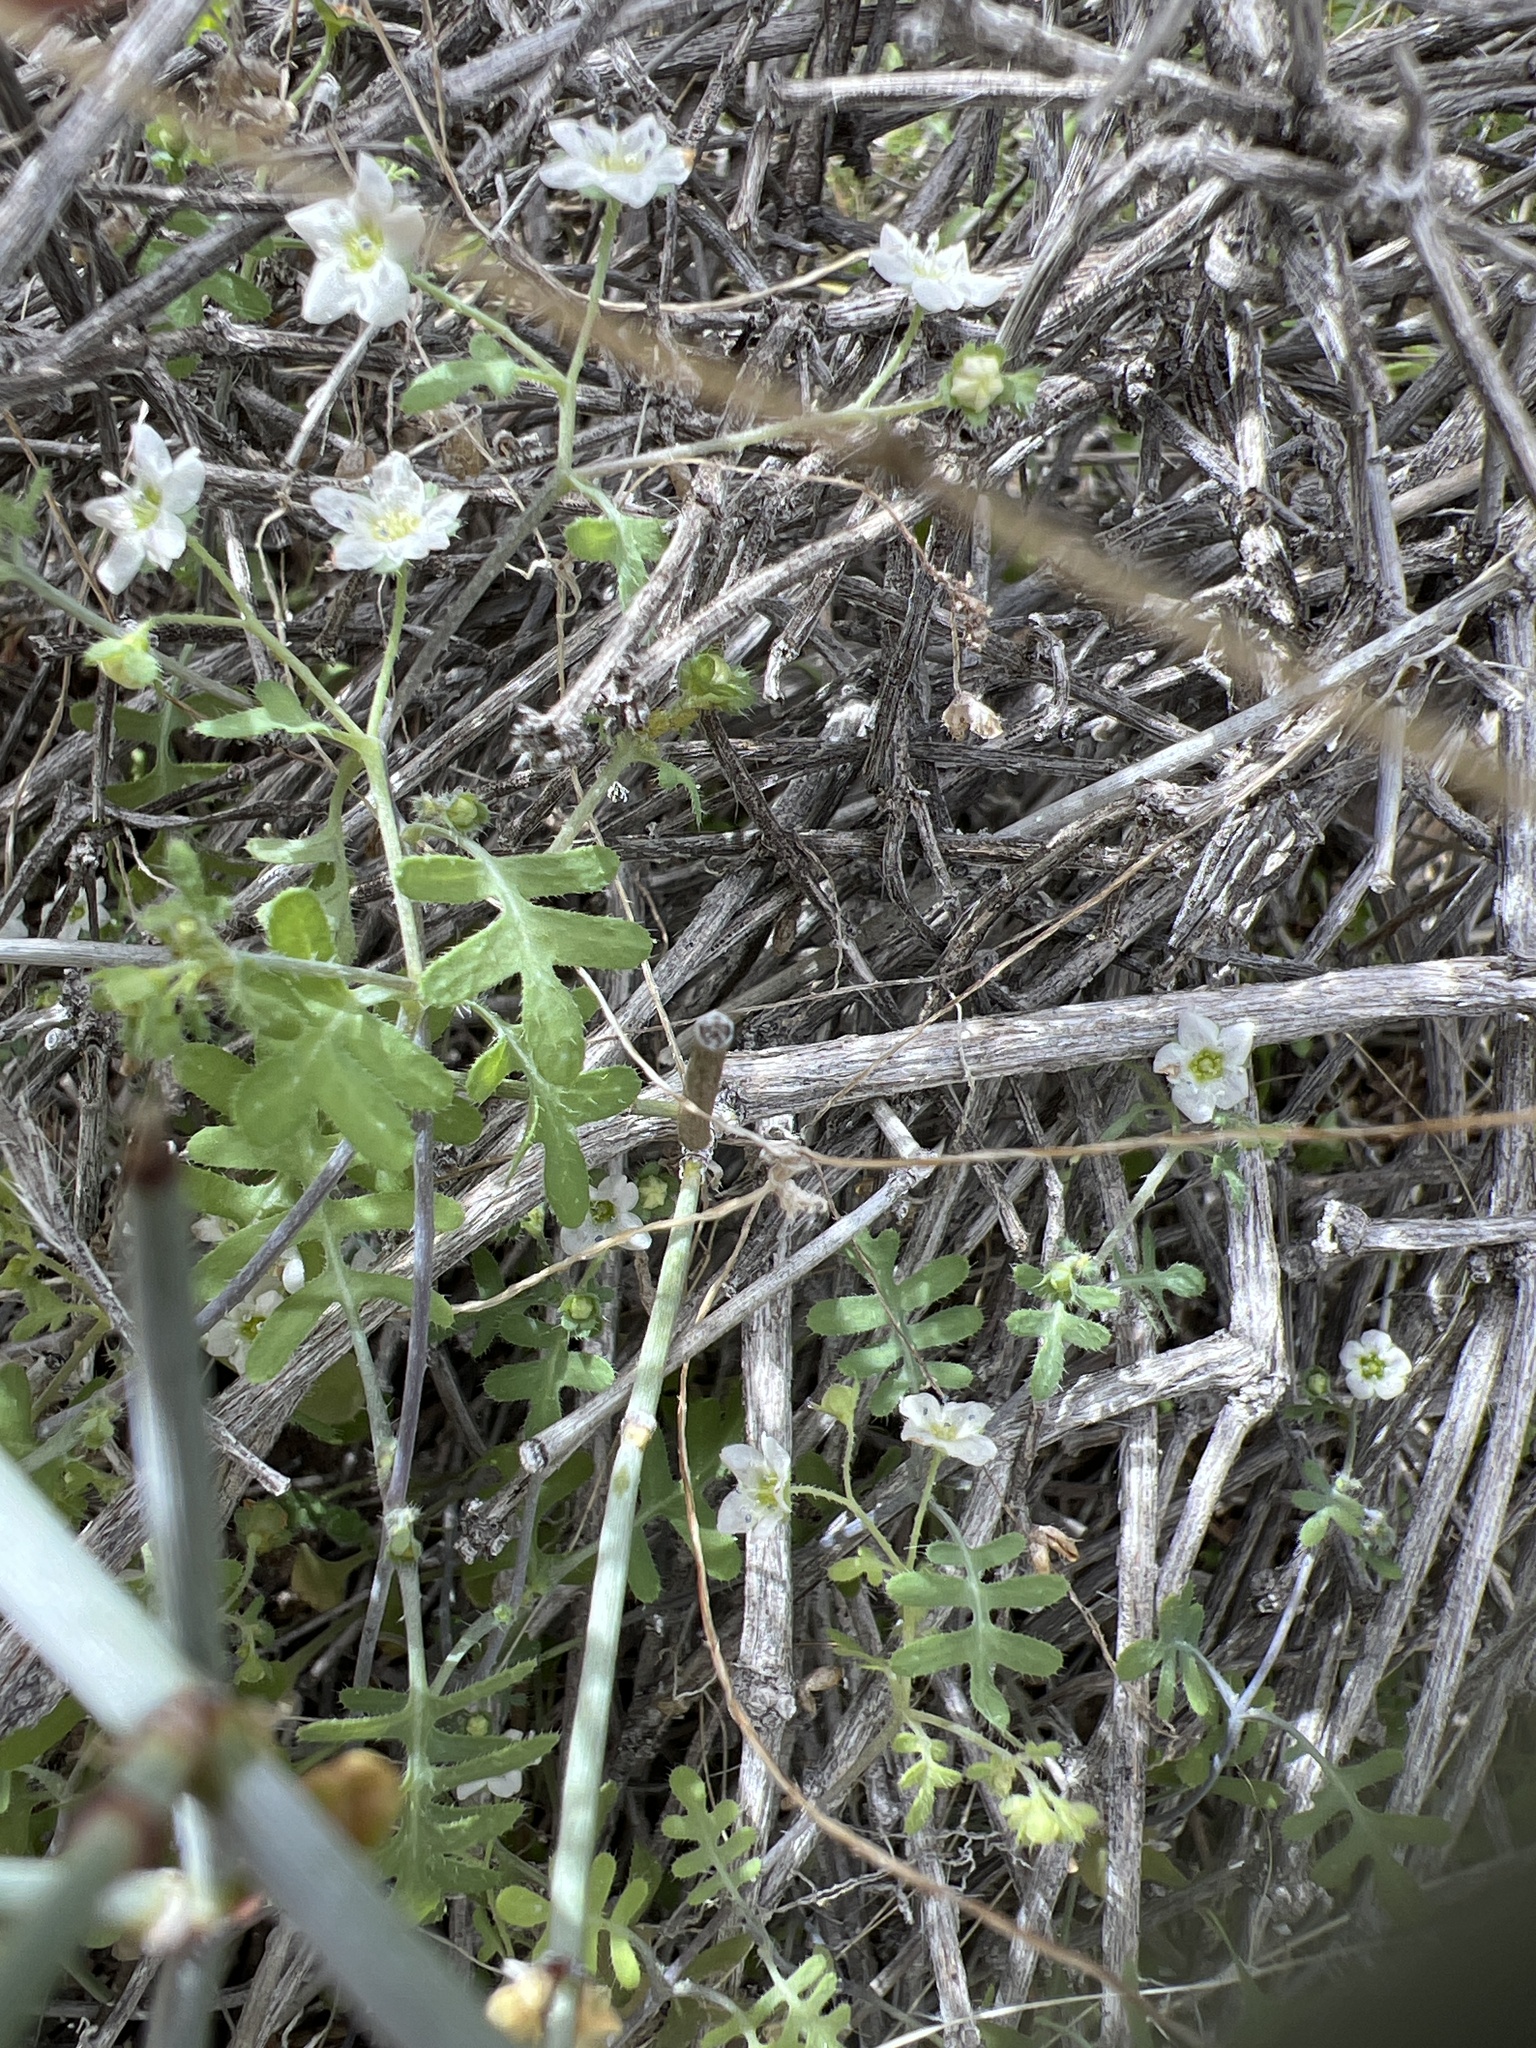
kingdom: Plantae
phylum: Tracheophyta
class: Magnoliopsida
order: Boraginales
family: Hydrophyllaceae
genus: Pholistoma
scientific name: Pholistoma membranaceum
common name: White fiesta-flower
